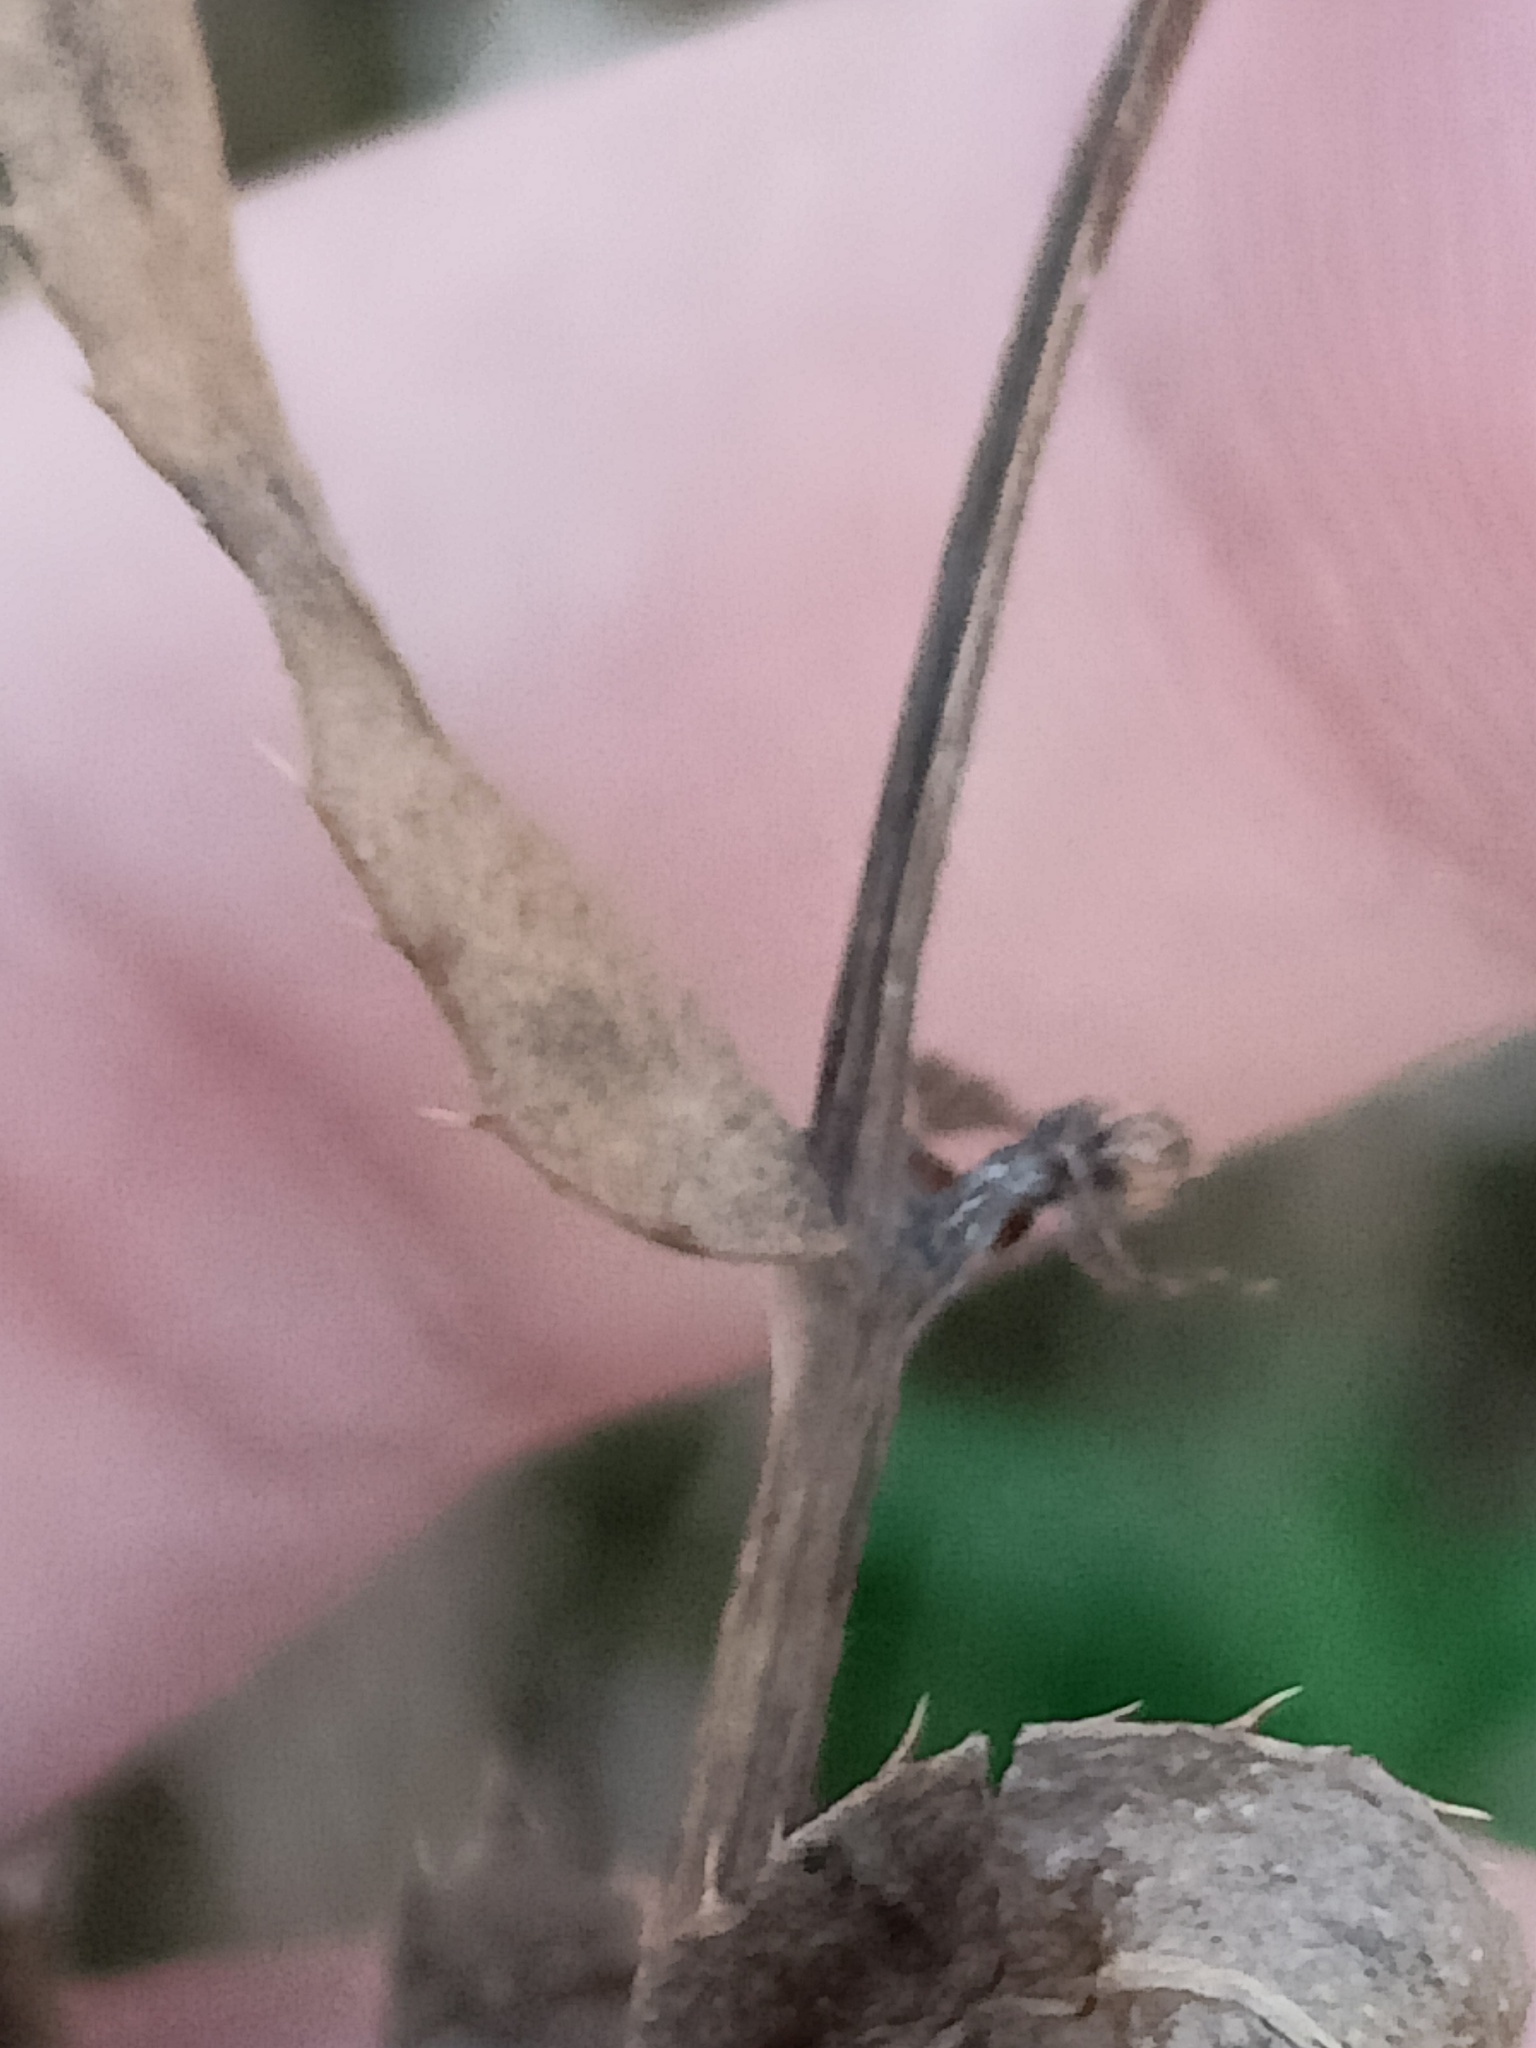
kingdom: Plantae
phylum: Tracheophyta
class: Magnoliopsida
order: Asterales
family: Asteraceae
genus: Cirsium
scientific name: Cirsium arvense
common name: Creeping thistle
